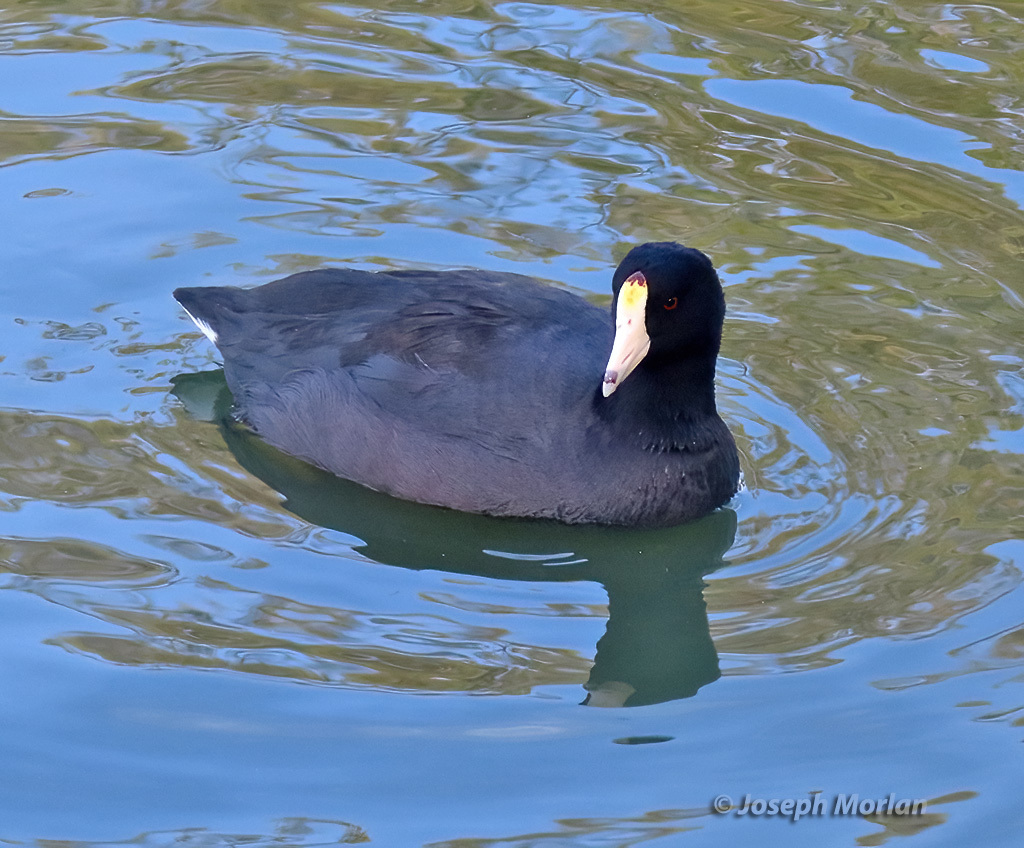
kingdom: Animalia
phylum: Chordata
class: Aves
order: Gruiformes
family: Rallidae
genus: Fulica
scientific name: Fulica americana
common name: American coot
